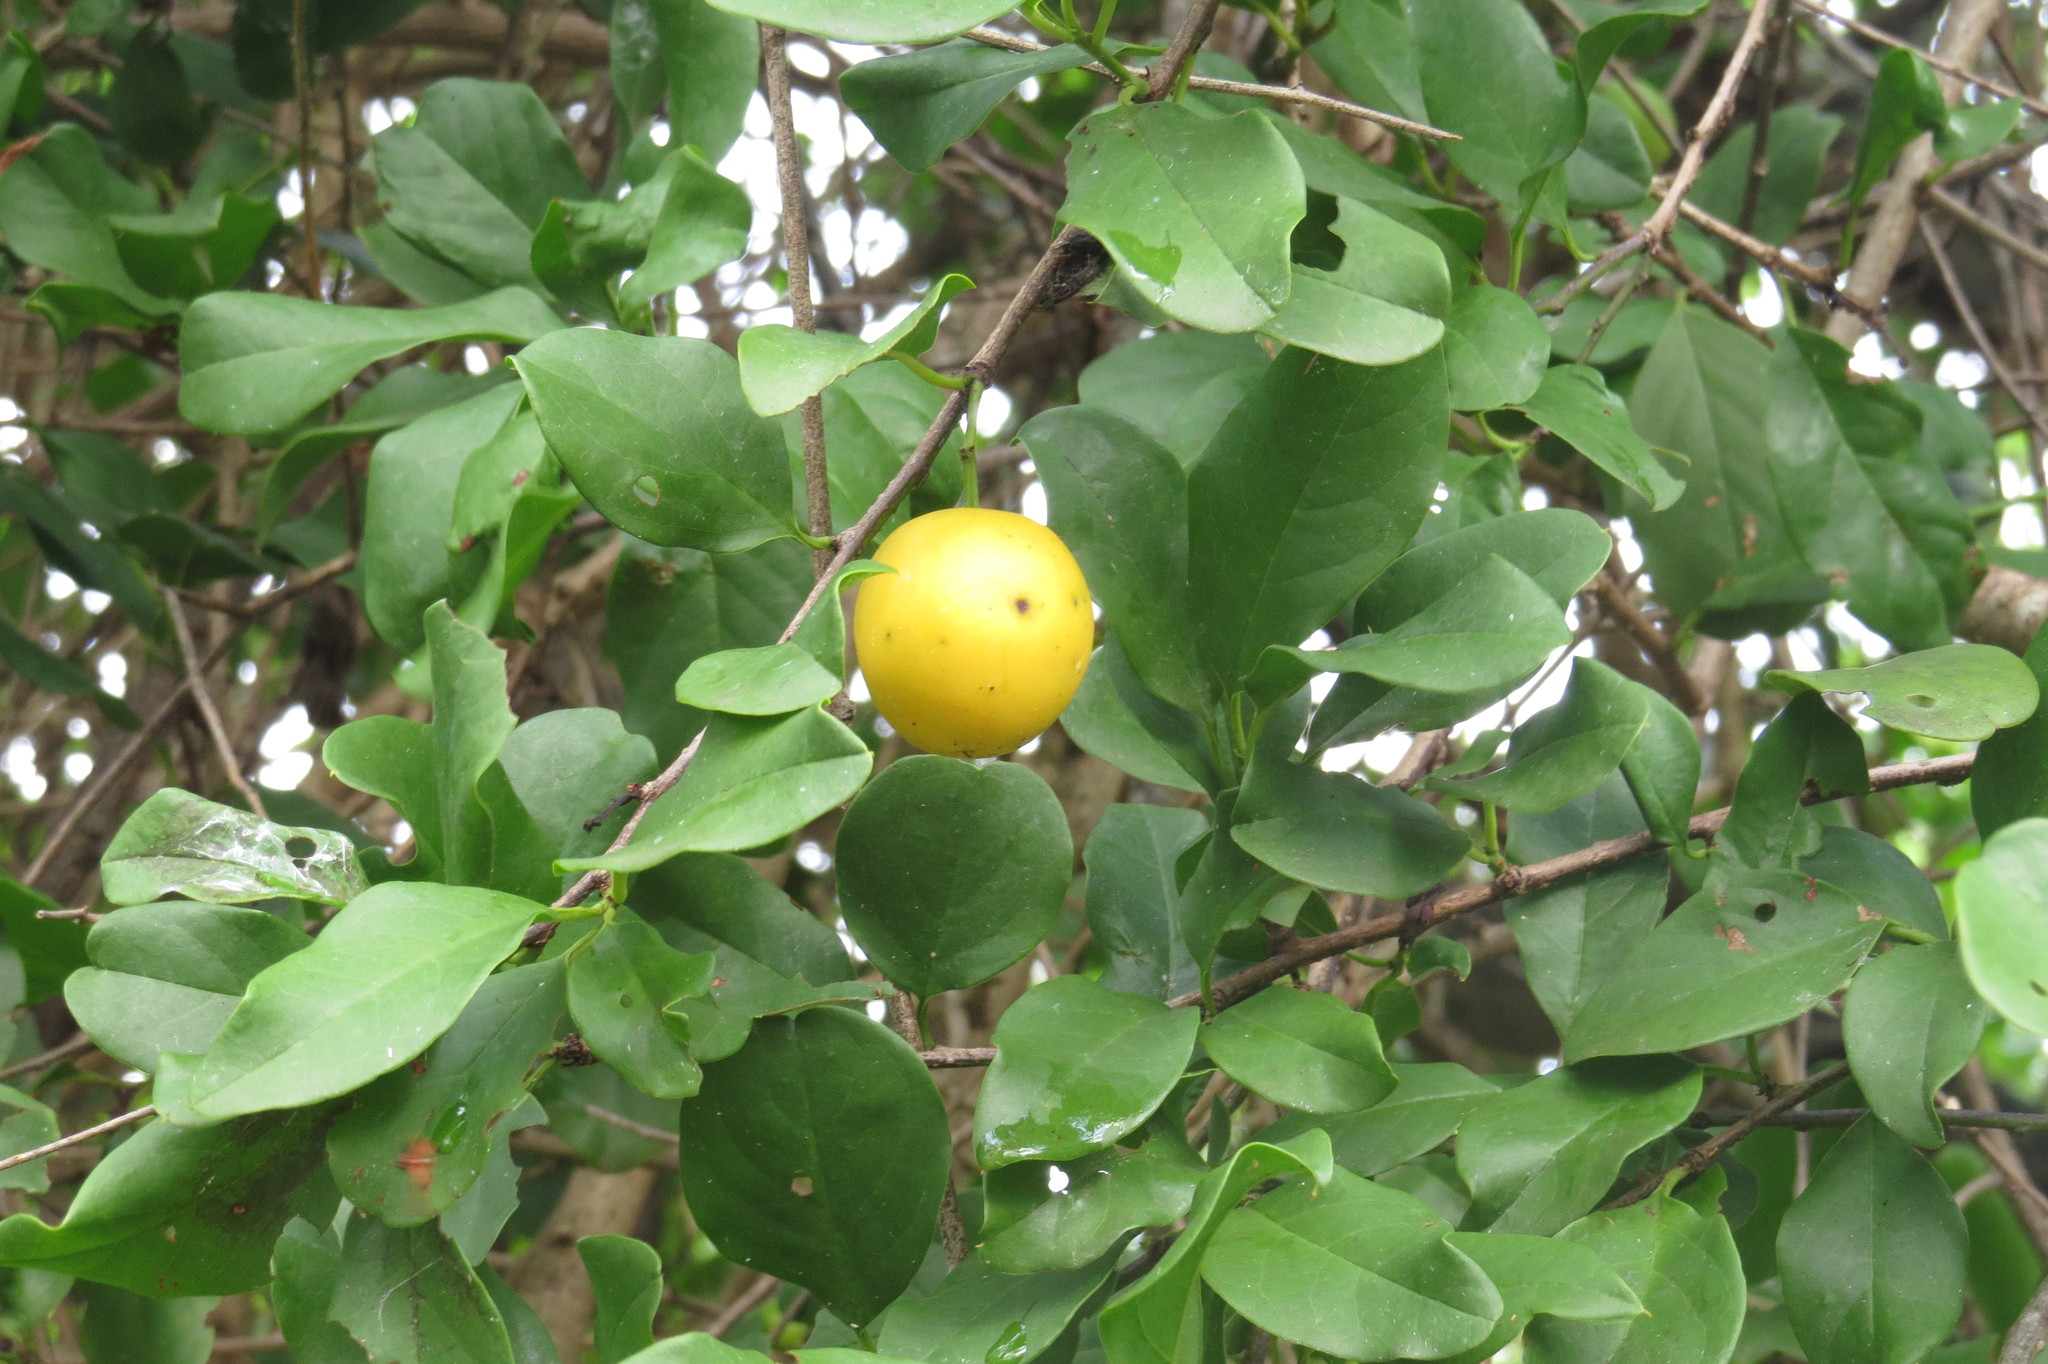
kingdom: Plantae
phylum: Tracheophyta
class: Magnoliopsida
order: Santalales
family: Ximeniaceae
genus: Ximenia
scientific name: Ximenia americana
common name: Tallowwood
